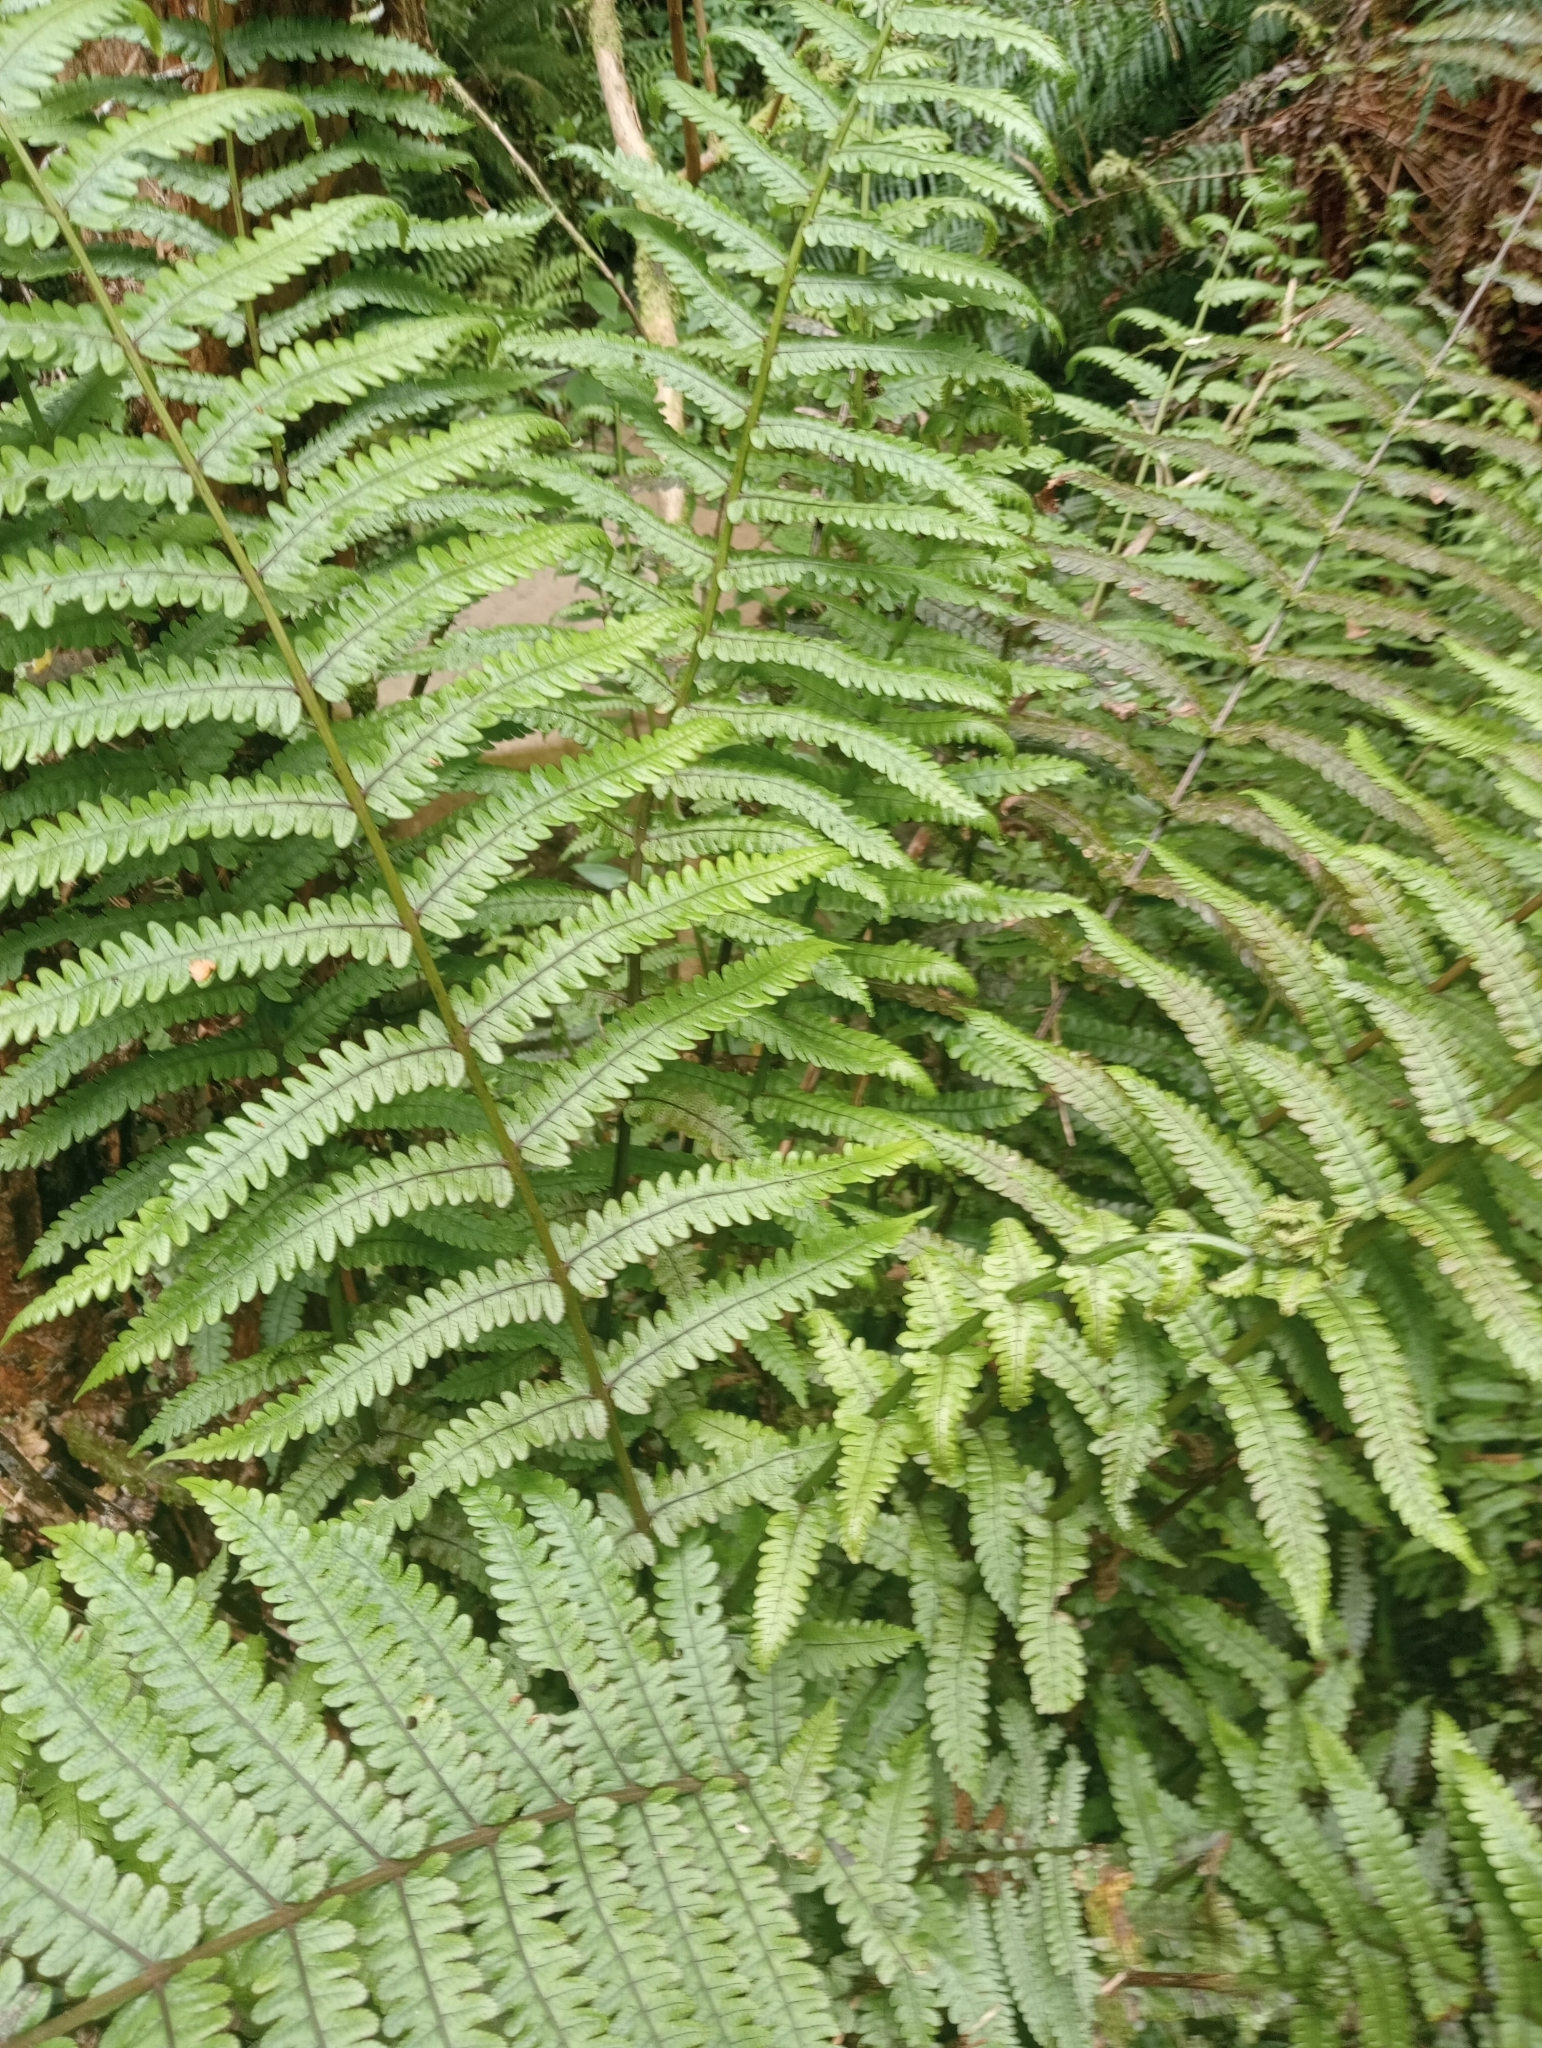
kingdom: Plantae
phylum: Tracheophyta
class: Polypodiopsida
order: Polypodiales
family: Thelypteridaceae
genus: Pakau
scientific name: Pakau pennigera
